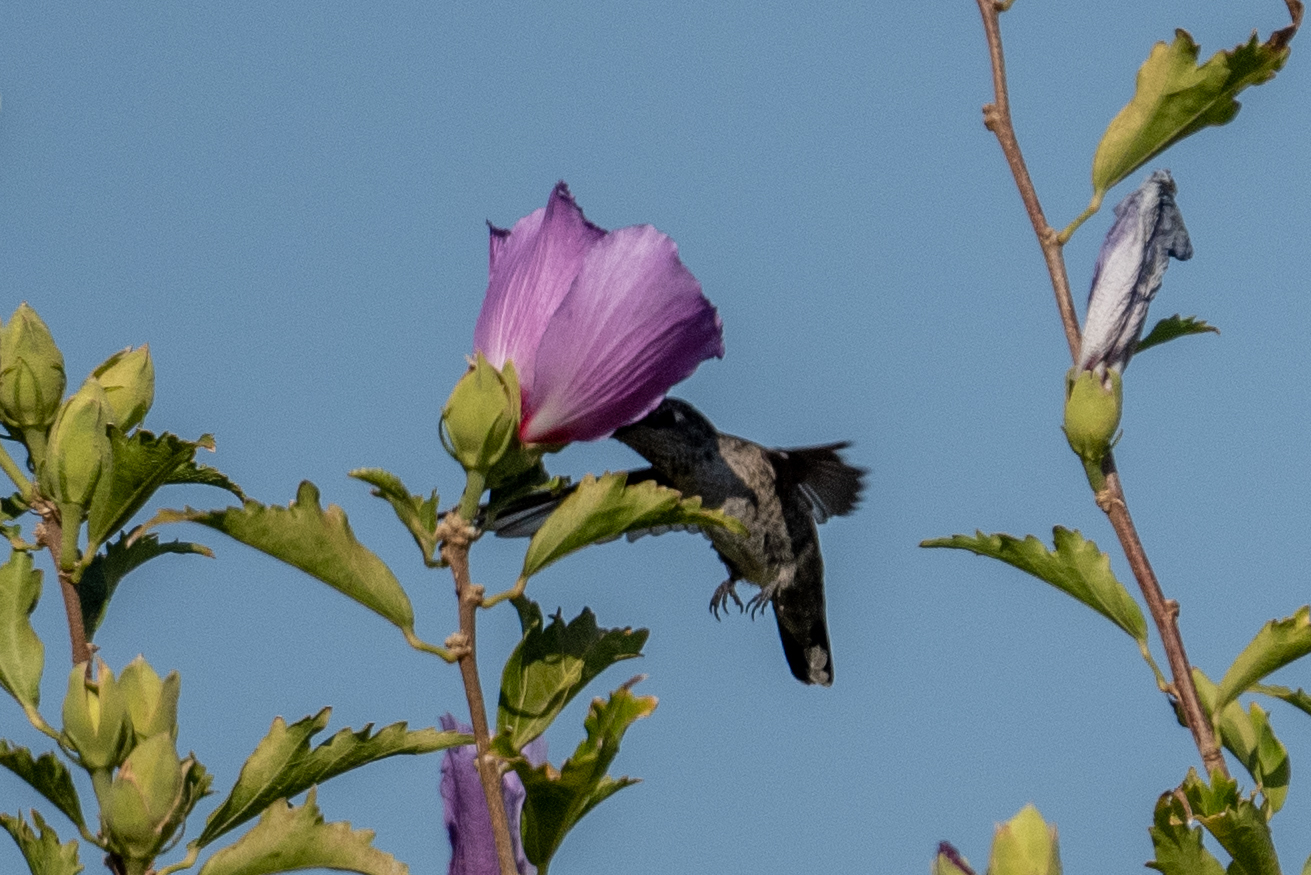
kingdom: Animalia
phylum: Chordata
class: Aves
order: Apodiformes
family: Trochilidae
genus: Calypte
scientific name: Calypte anna
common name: Anna's hummingbird
